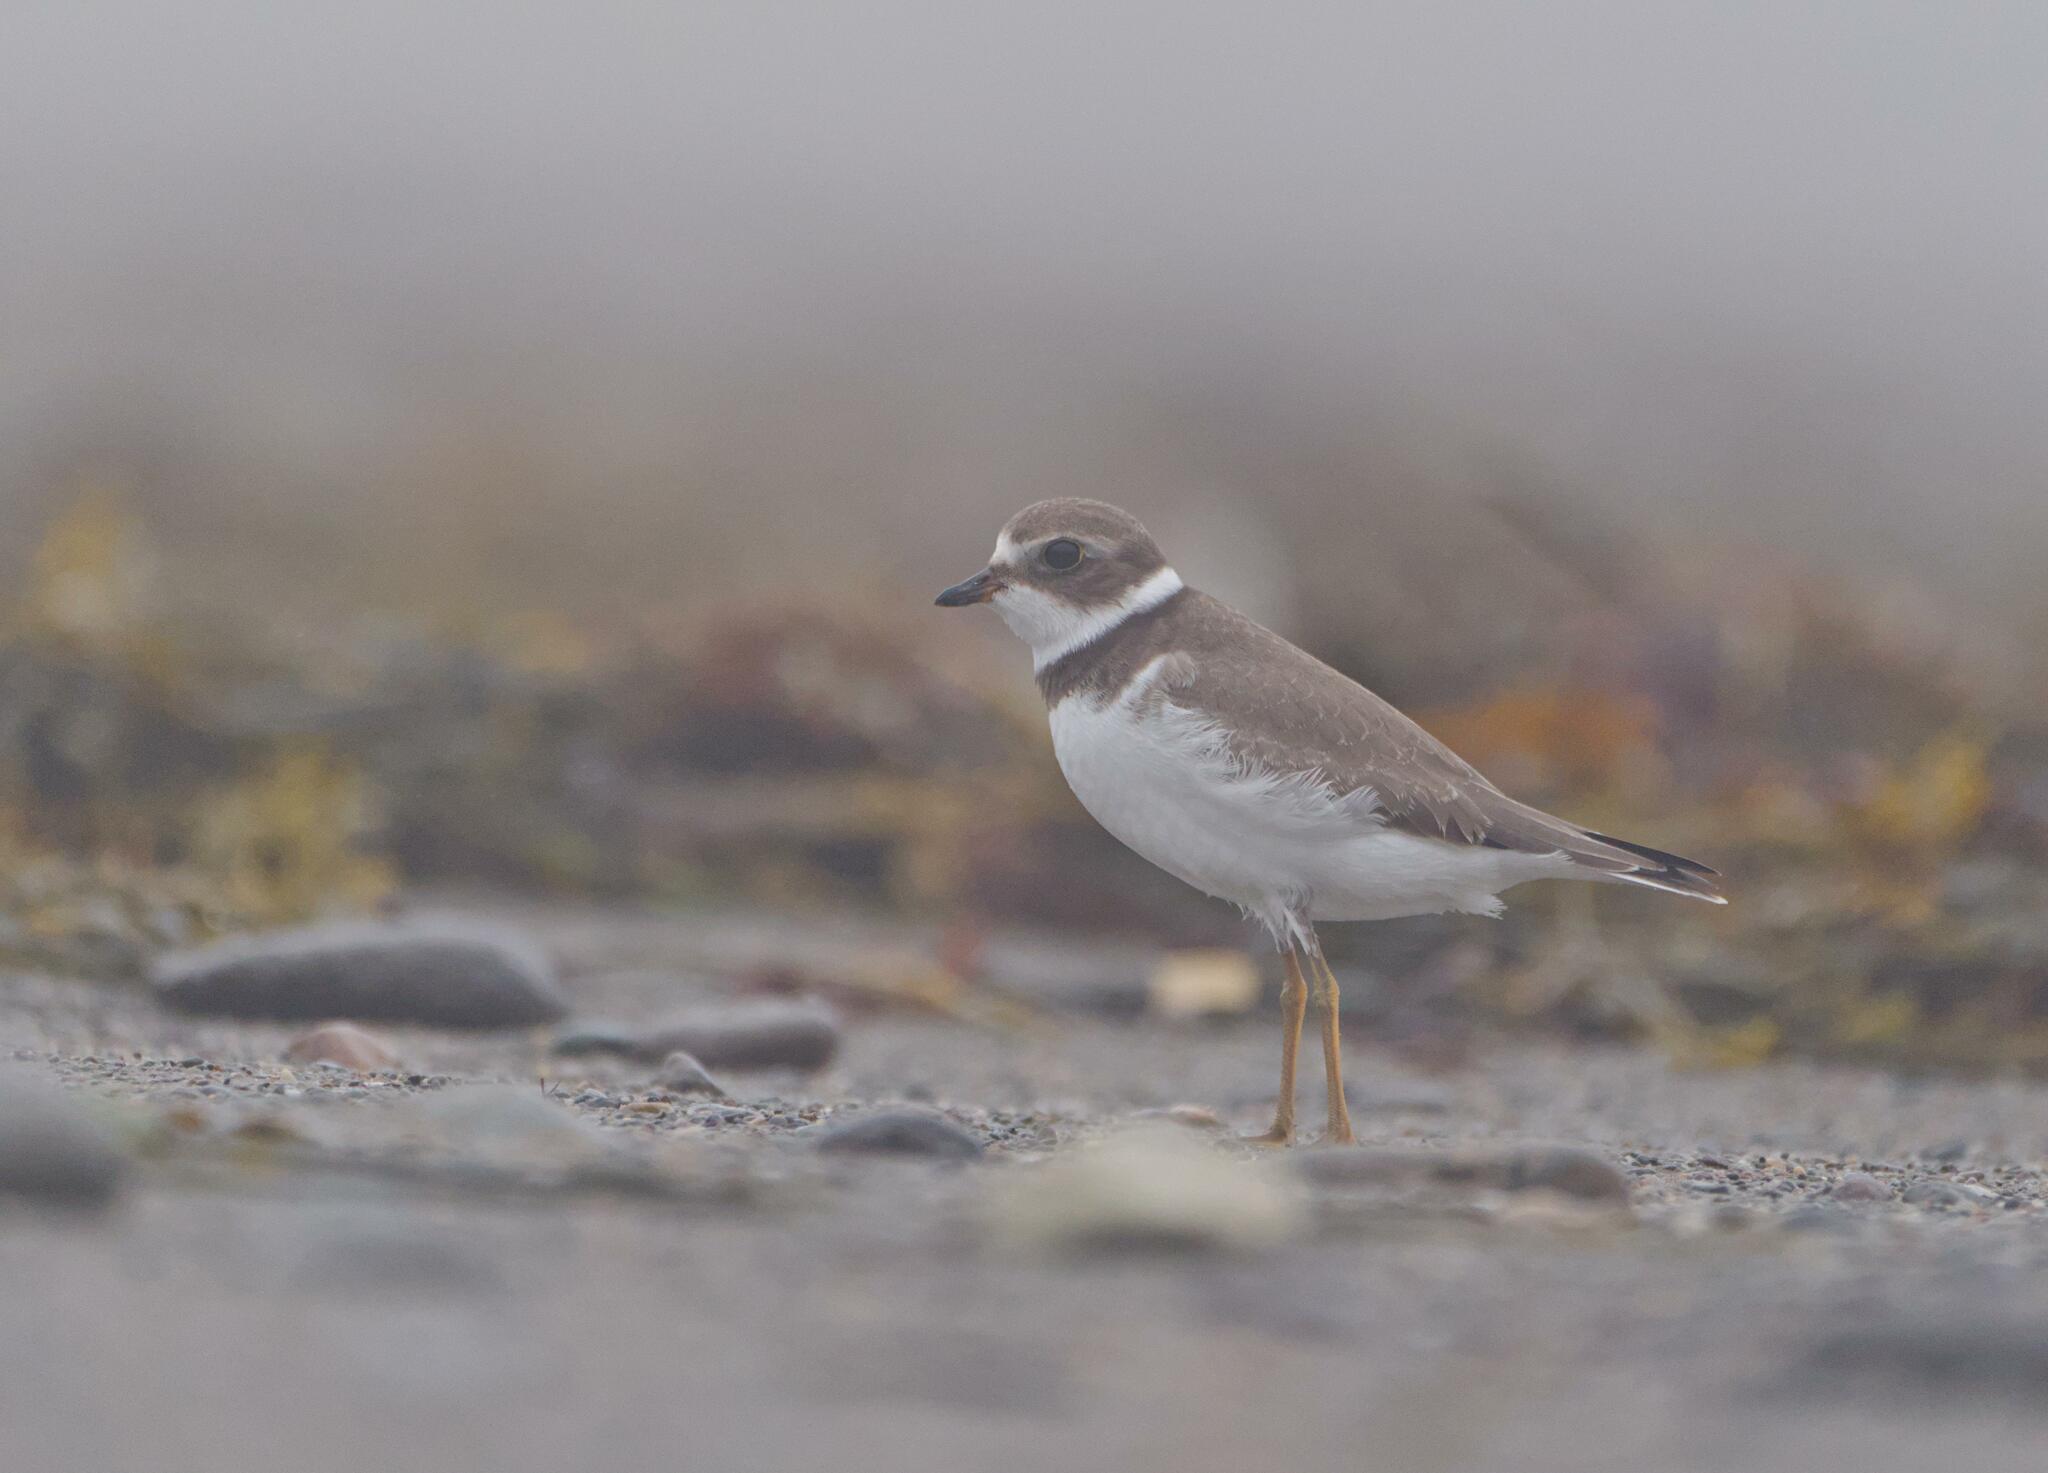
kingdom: Animalia
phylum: Chordata
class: Aves
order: Charadriiformes
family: Charadriidae
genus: Charadrius
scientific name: Charadrius semipalmatus
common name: Semipalmated plover
